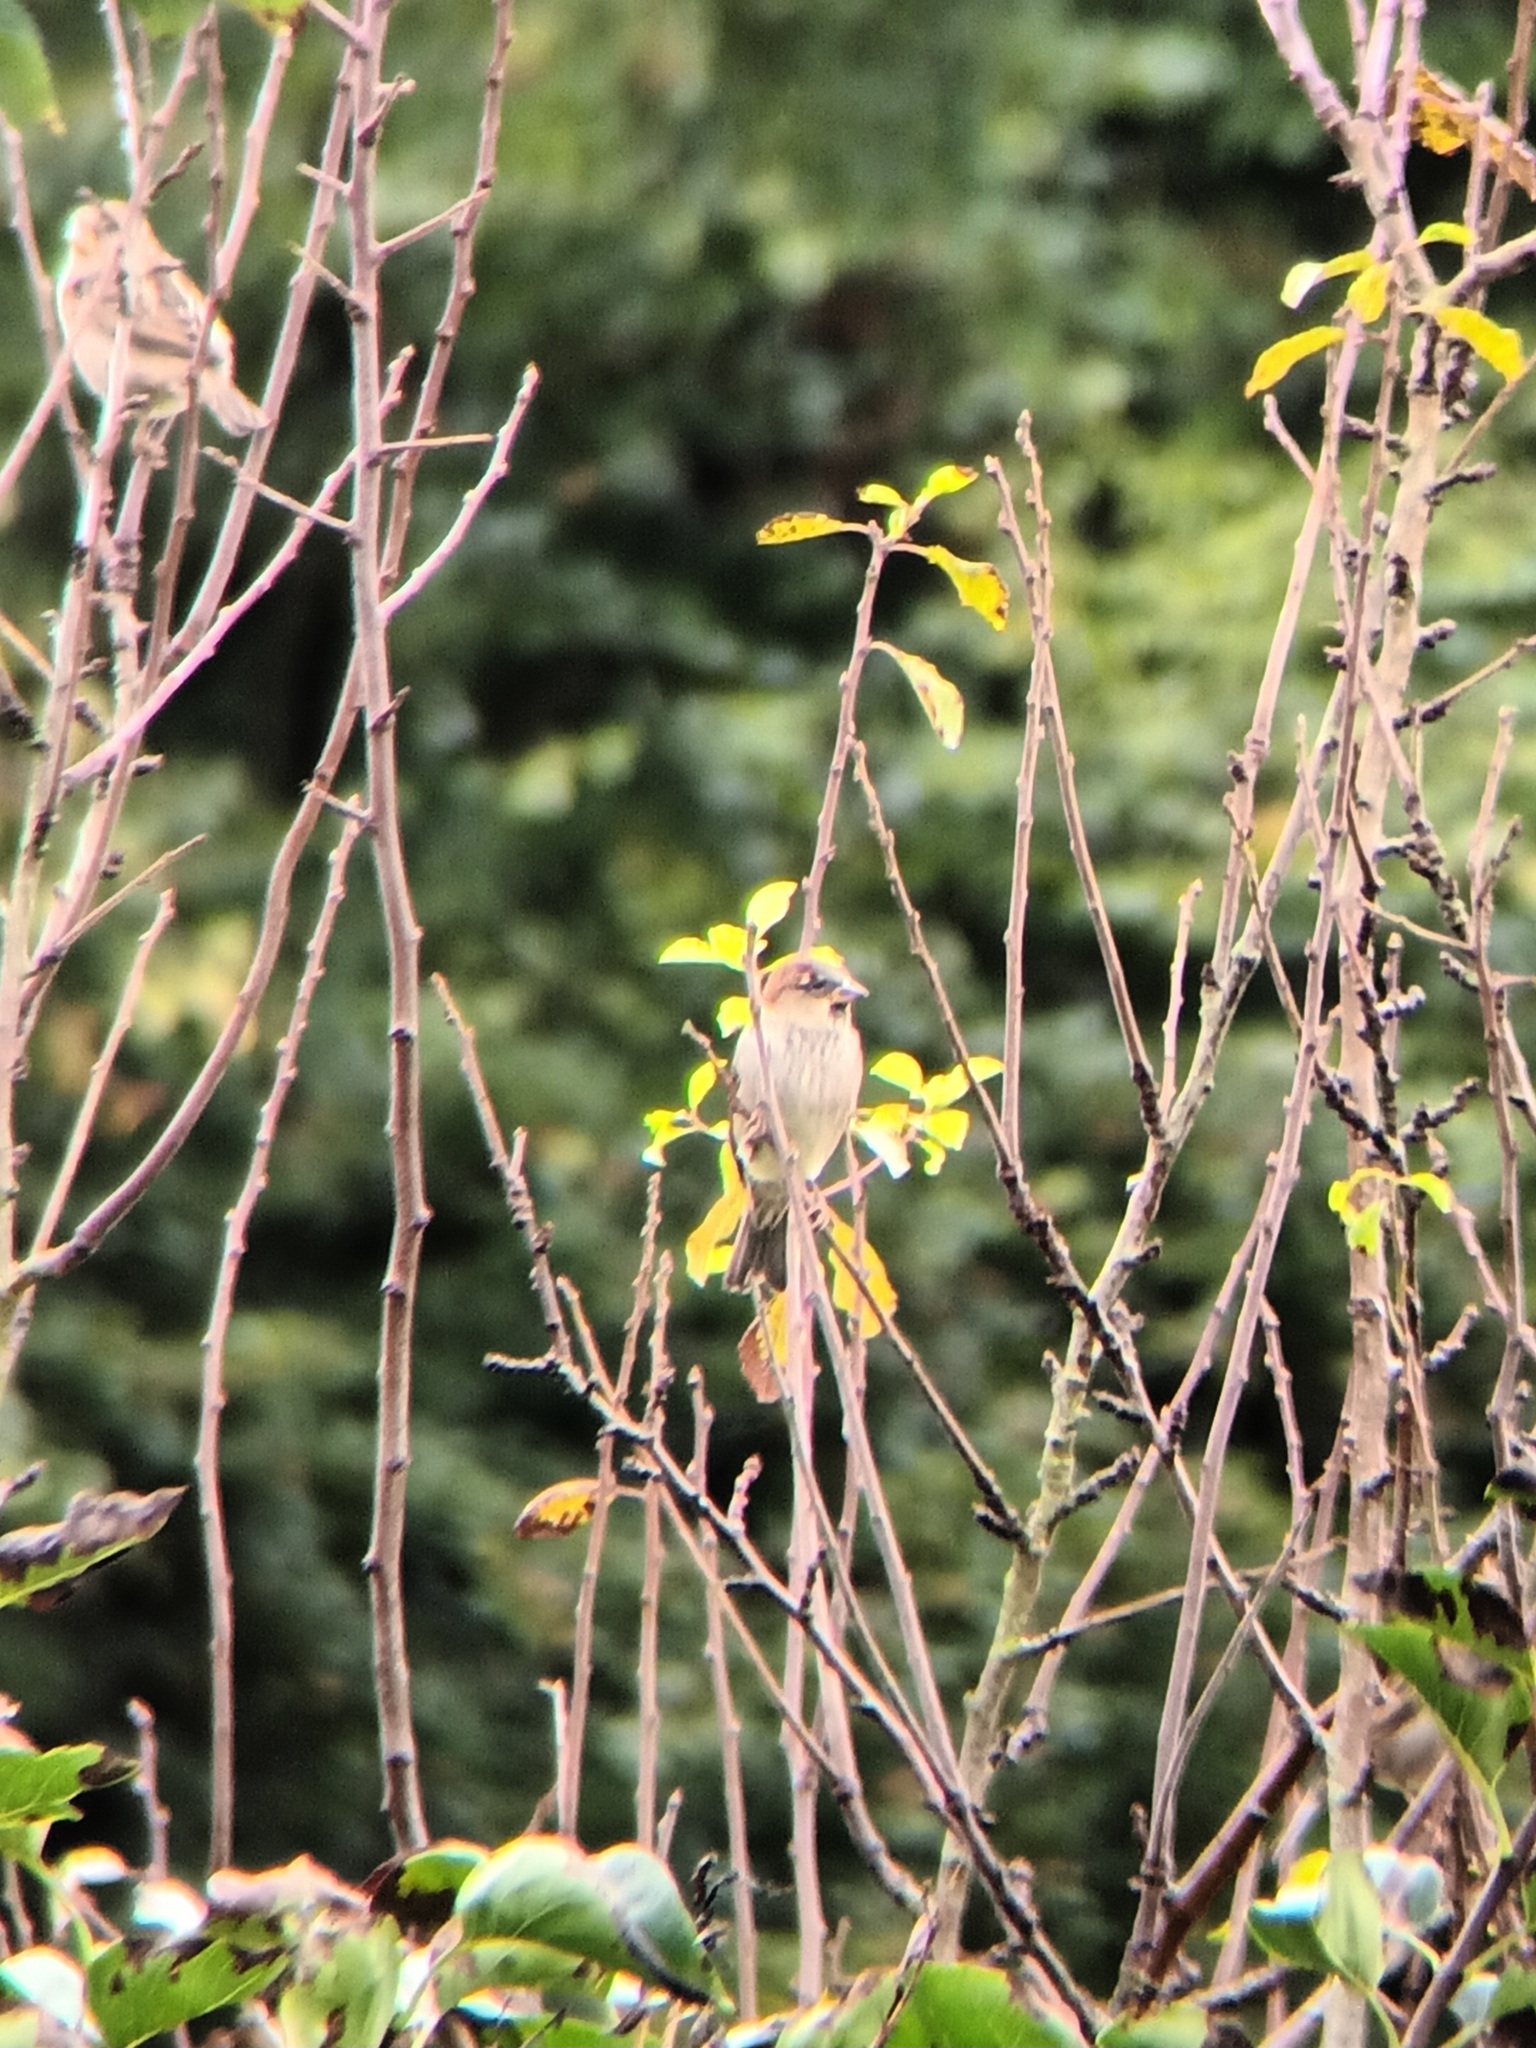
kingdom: Animalia
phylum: Chordata
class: Aves
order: Passeriformes
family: Passeridae
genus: Passer
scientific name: Passer domesticus
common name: House sparrow
